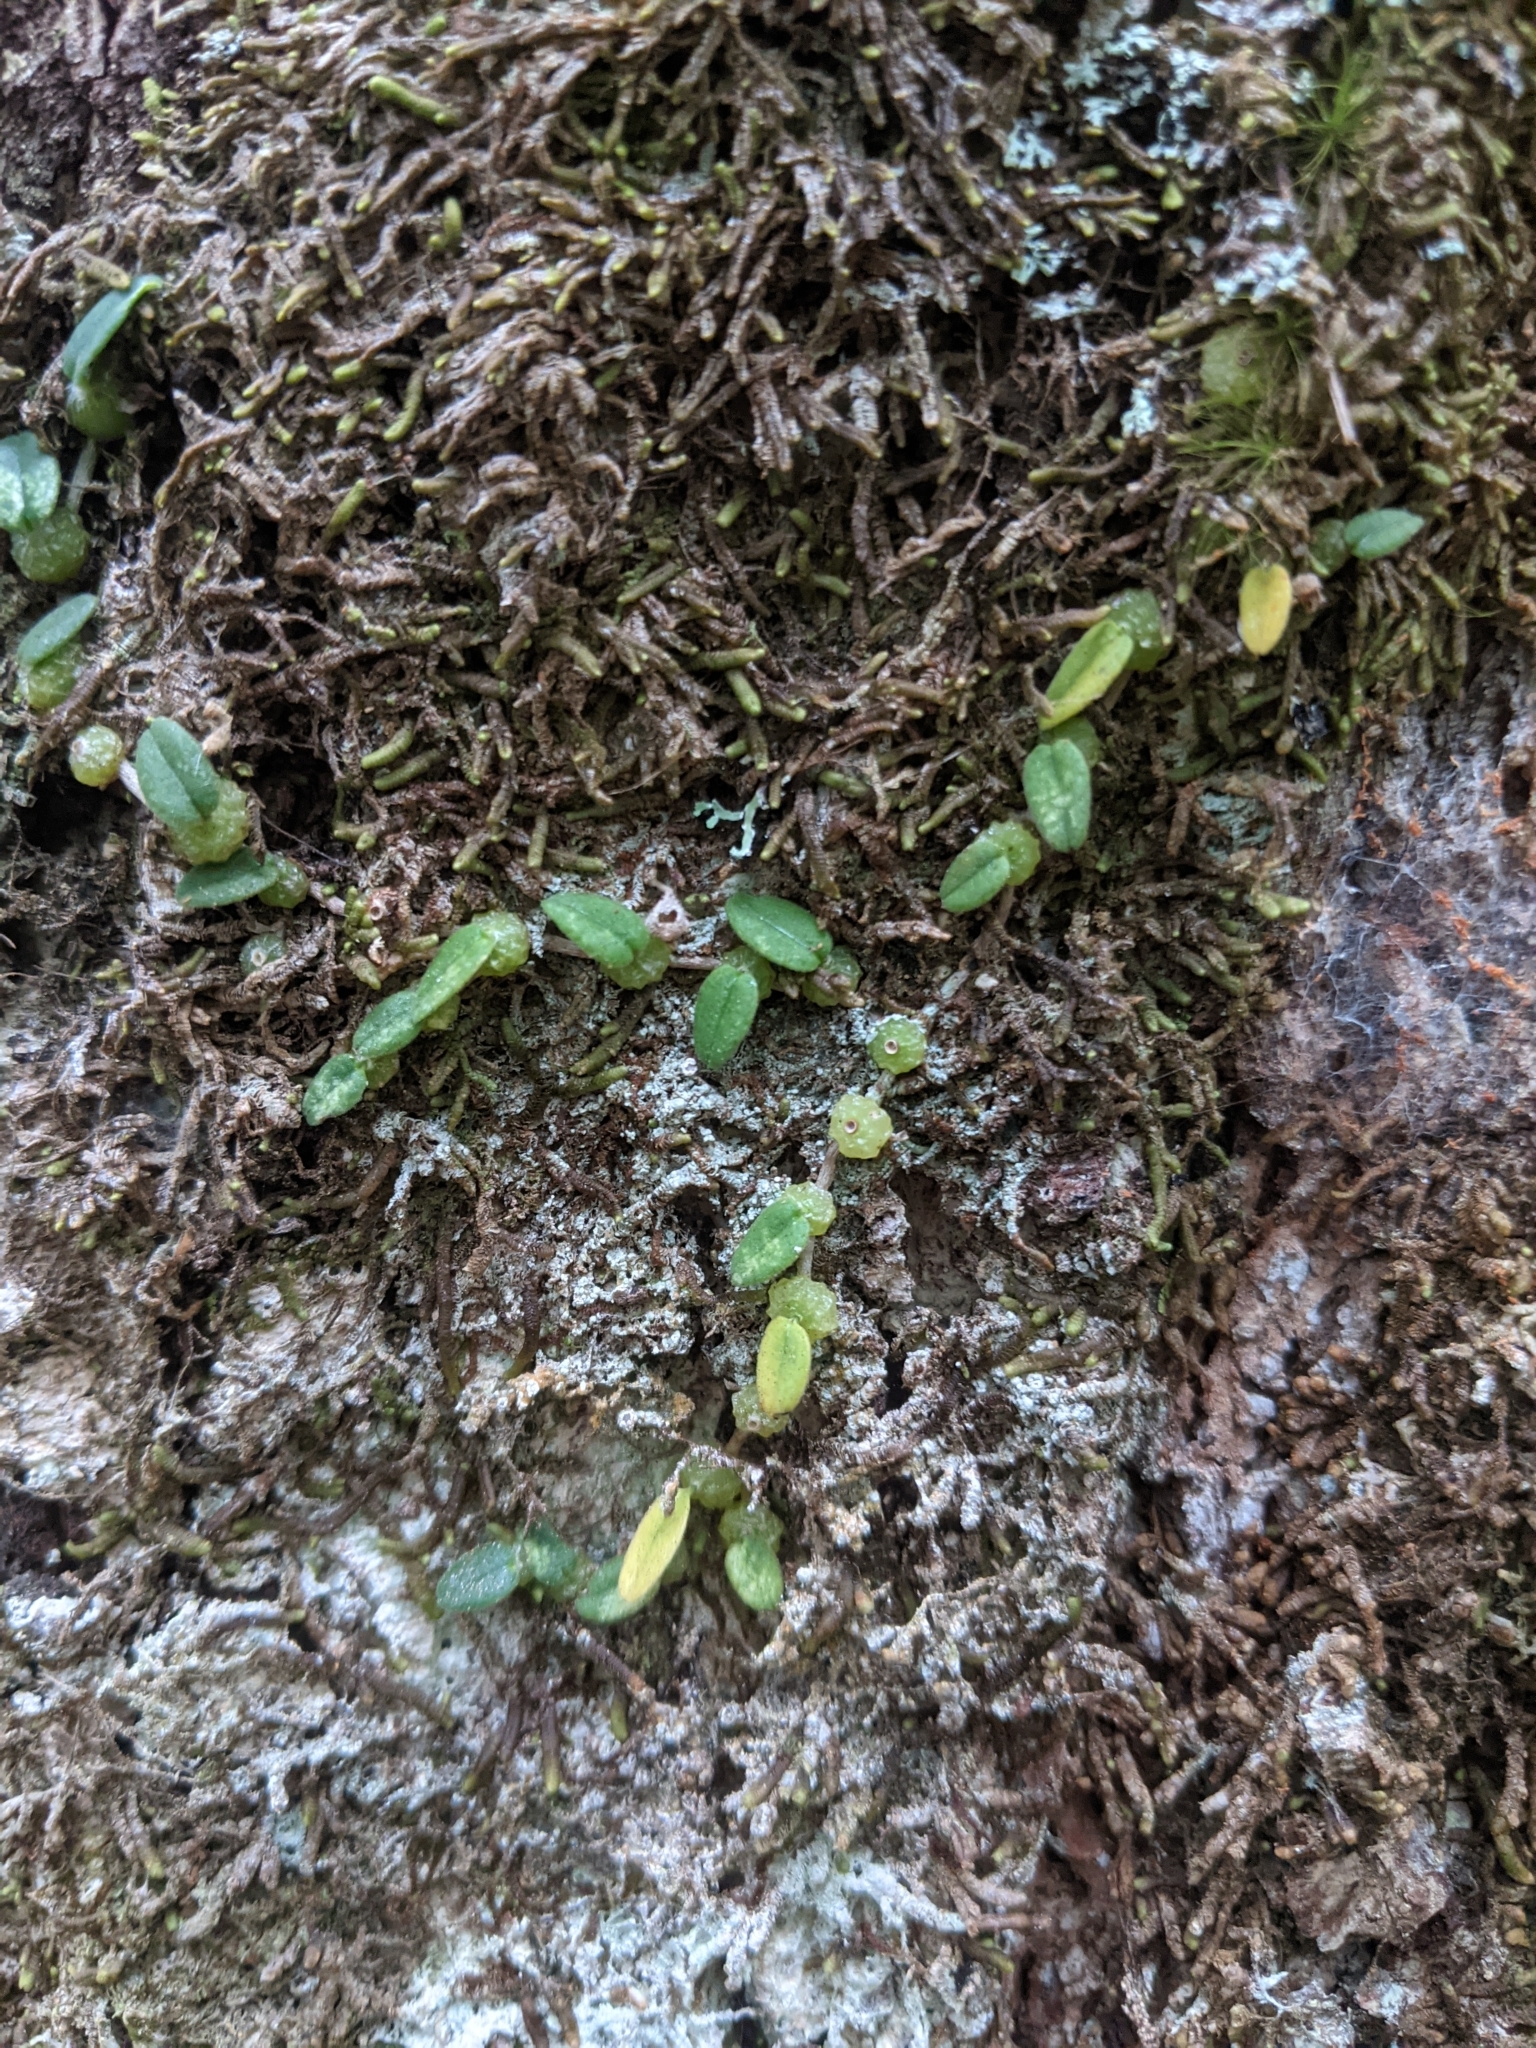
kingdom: Plantae
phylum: Tracheophyta
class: Liliopsida
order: Asparagales
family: Orchidaceae
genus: Bulbophyllum
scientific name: Bulbophyllum pygmaeum
